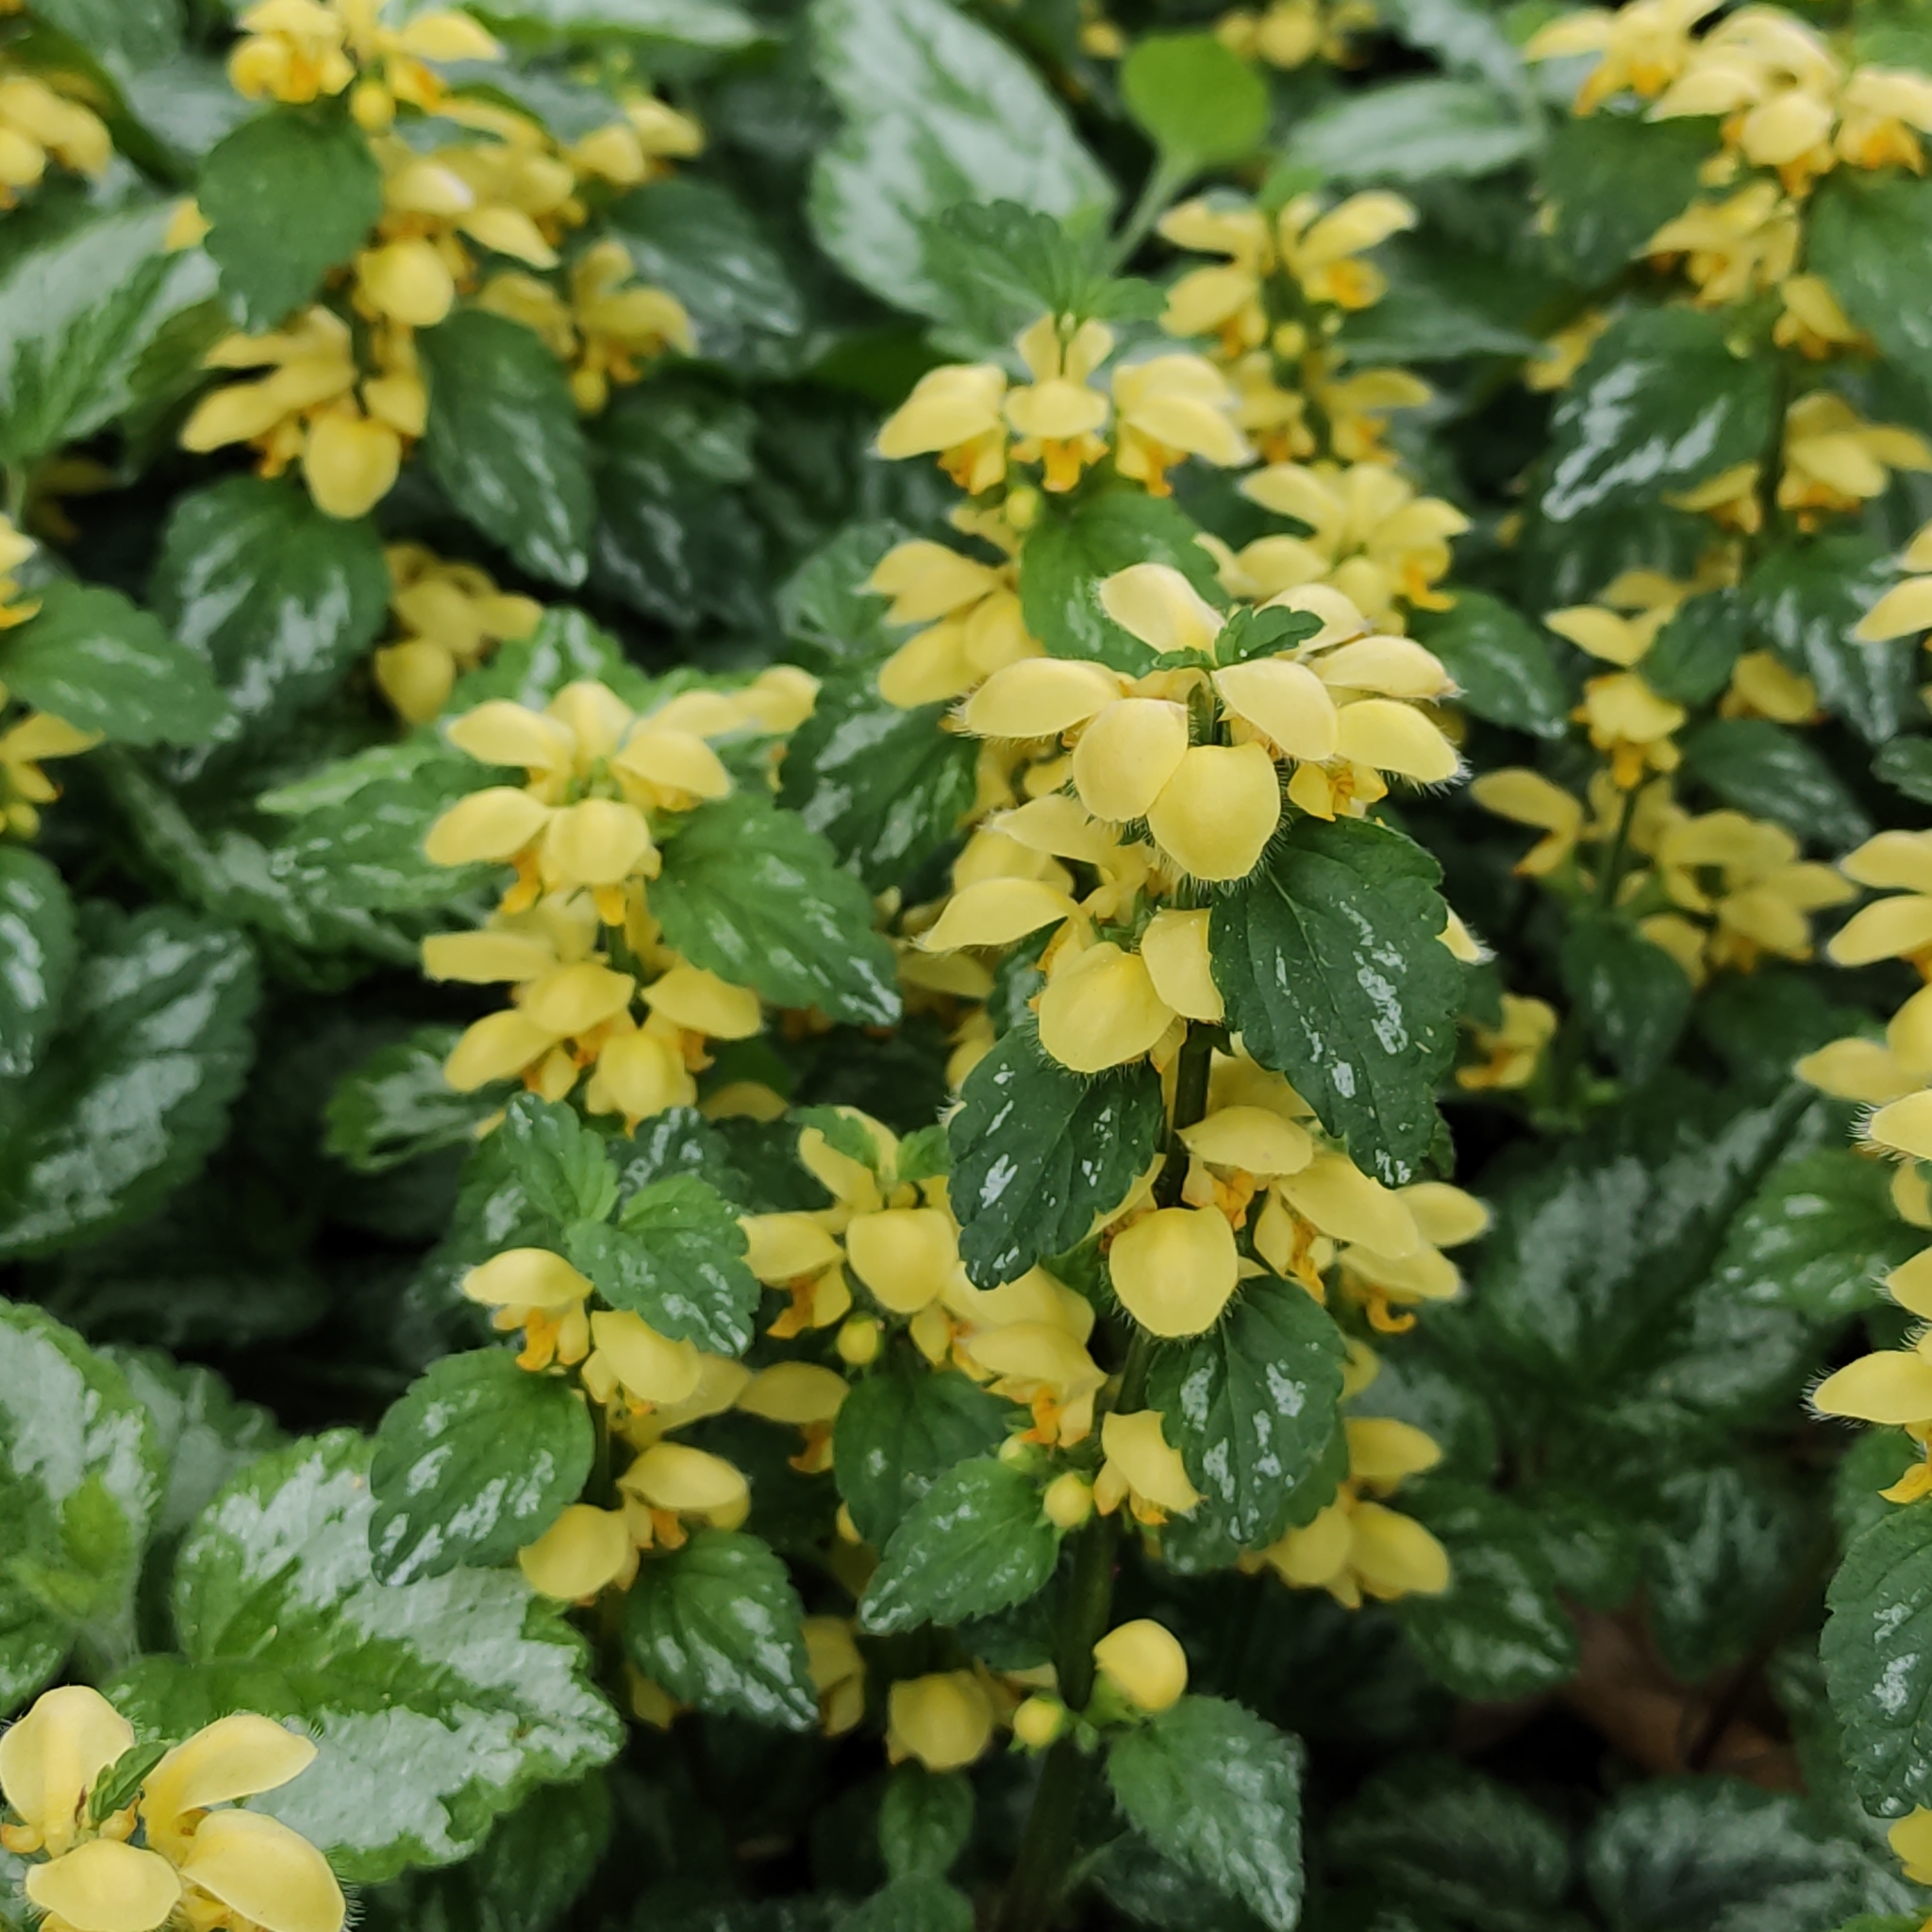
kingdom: Plantae
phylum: Tracheophyta
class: Magnoliopsida
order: Lamiales
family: Lamiaceae
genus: Lamium
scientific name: Lamium galeobdolon
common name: Yellow archangel
